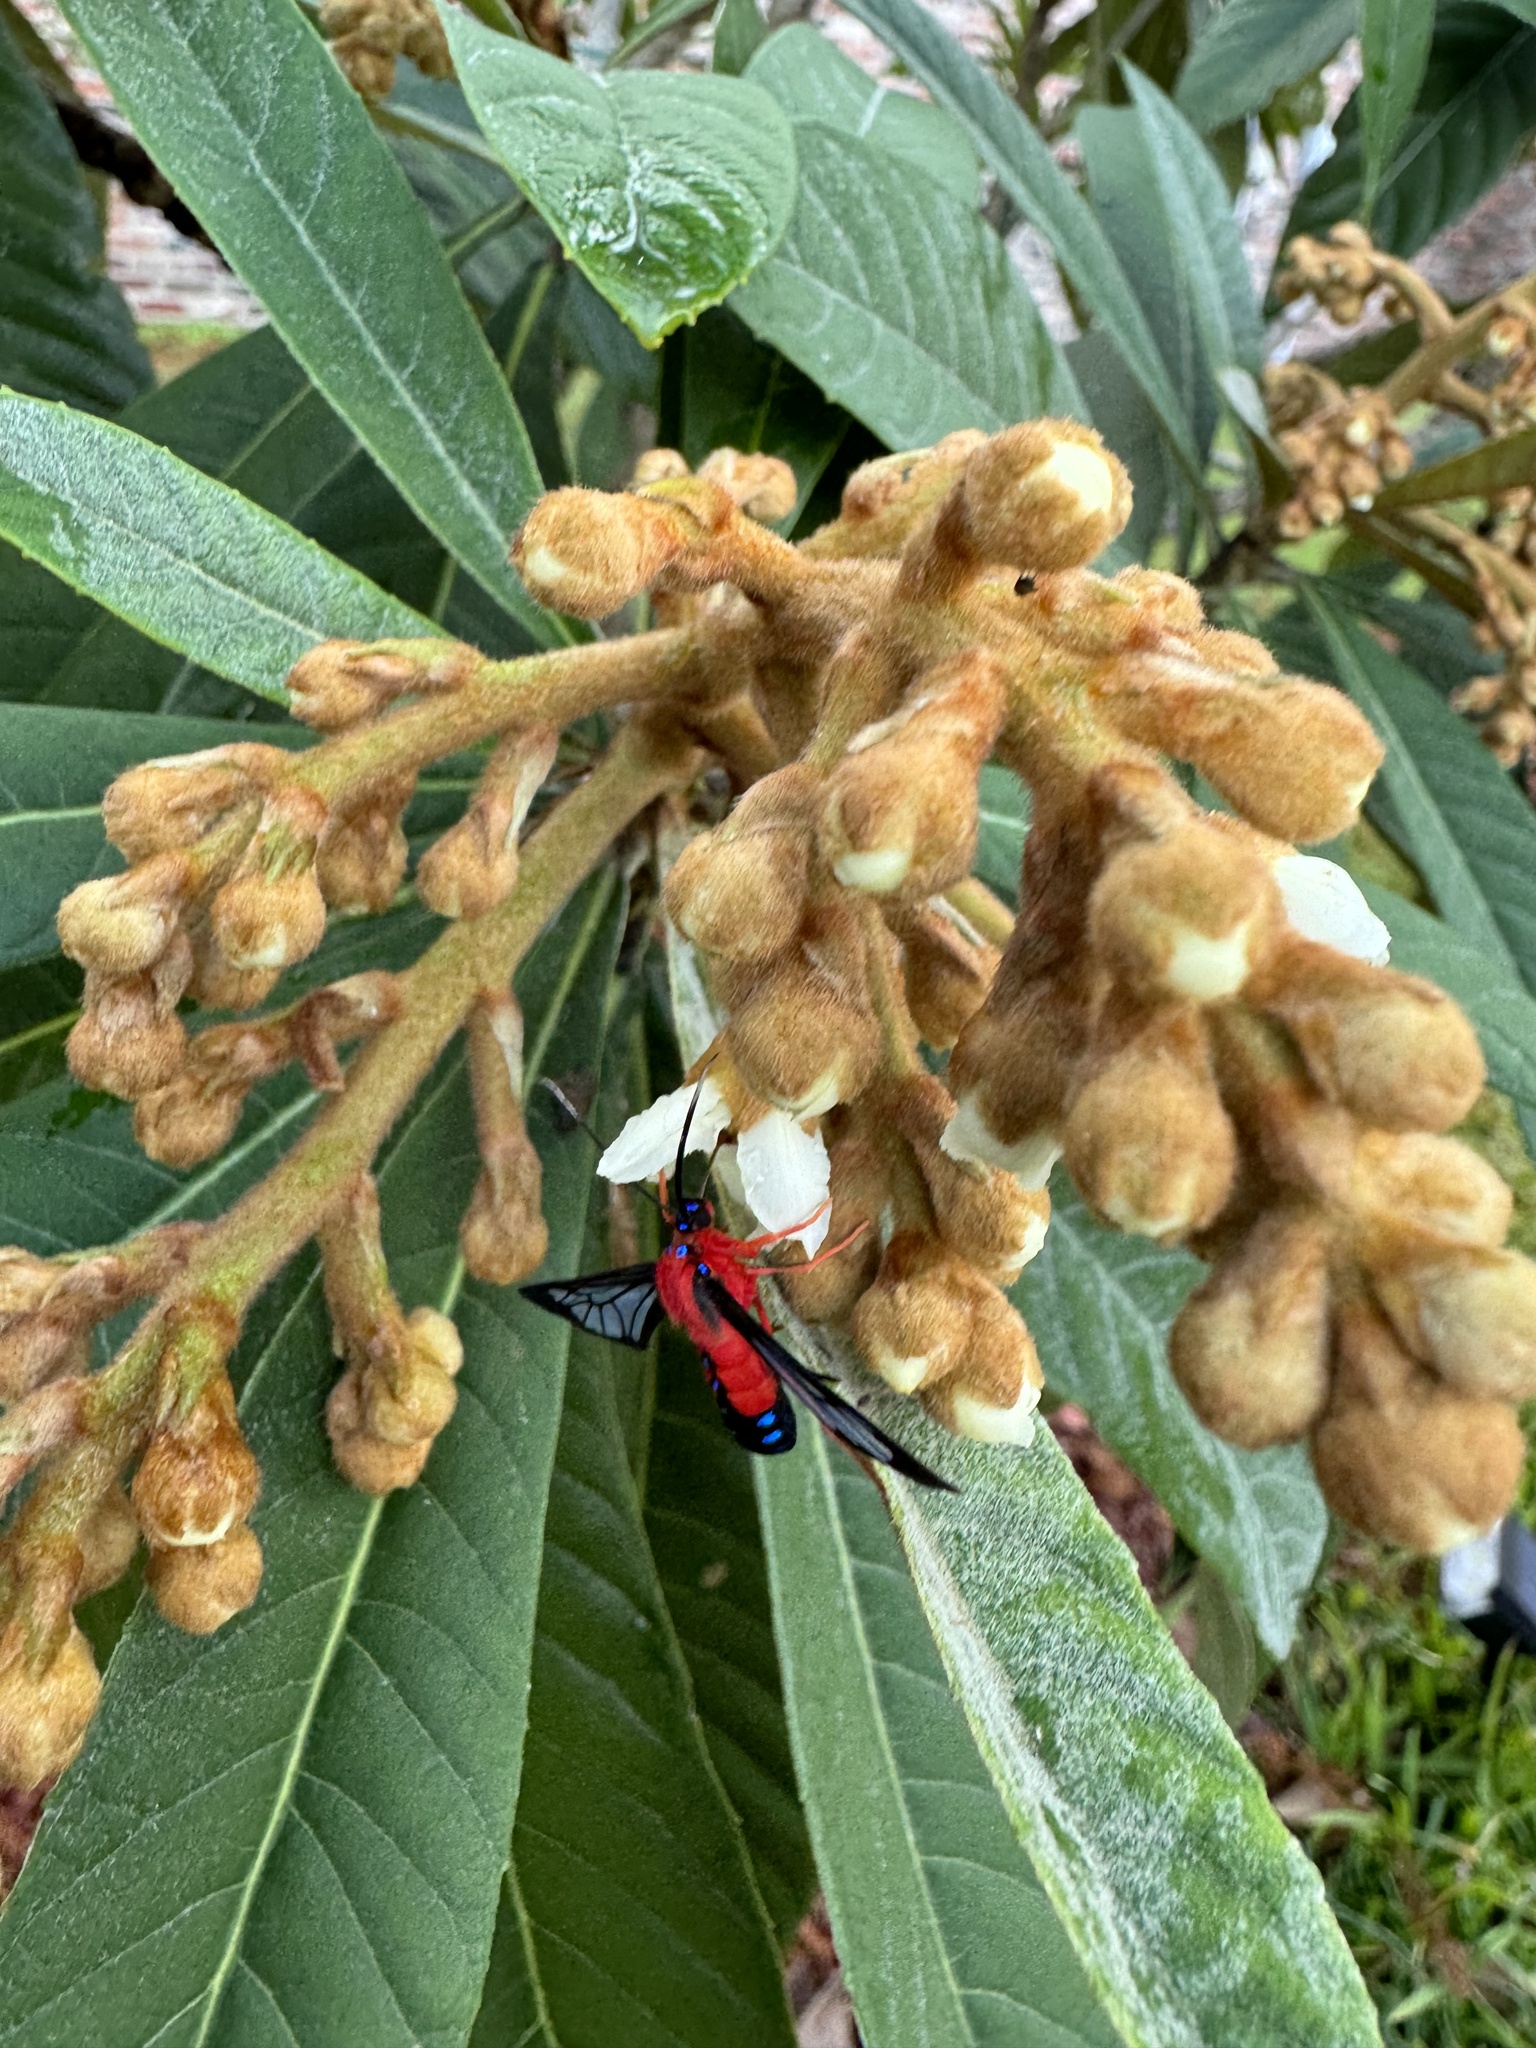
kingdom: Animalia
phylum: Arthropoda
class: Insecta
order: Lepidoptera
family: Erebidae
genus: Cosmosoma
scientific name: Cosmosoma myrodora
